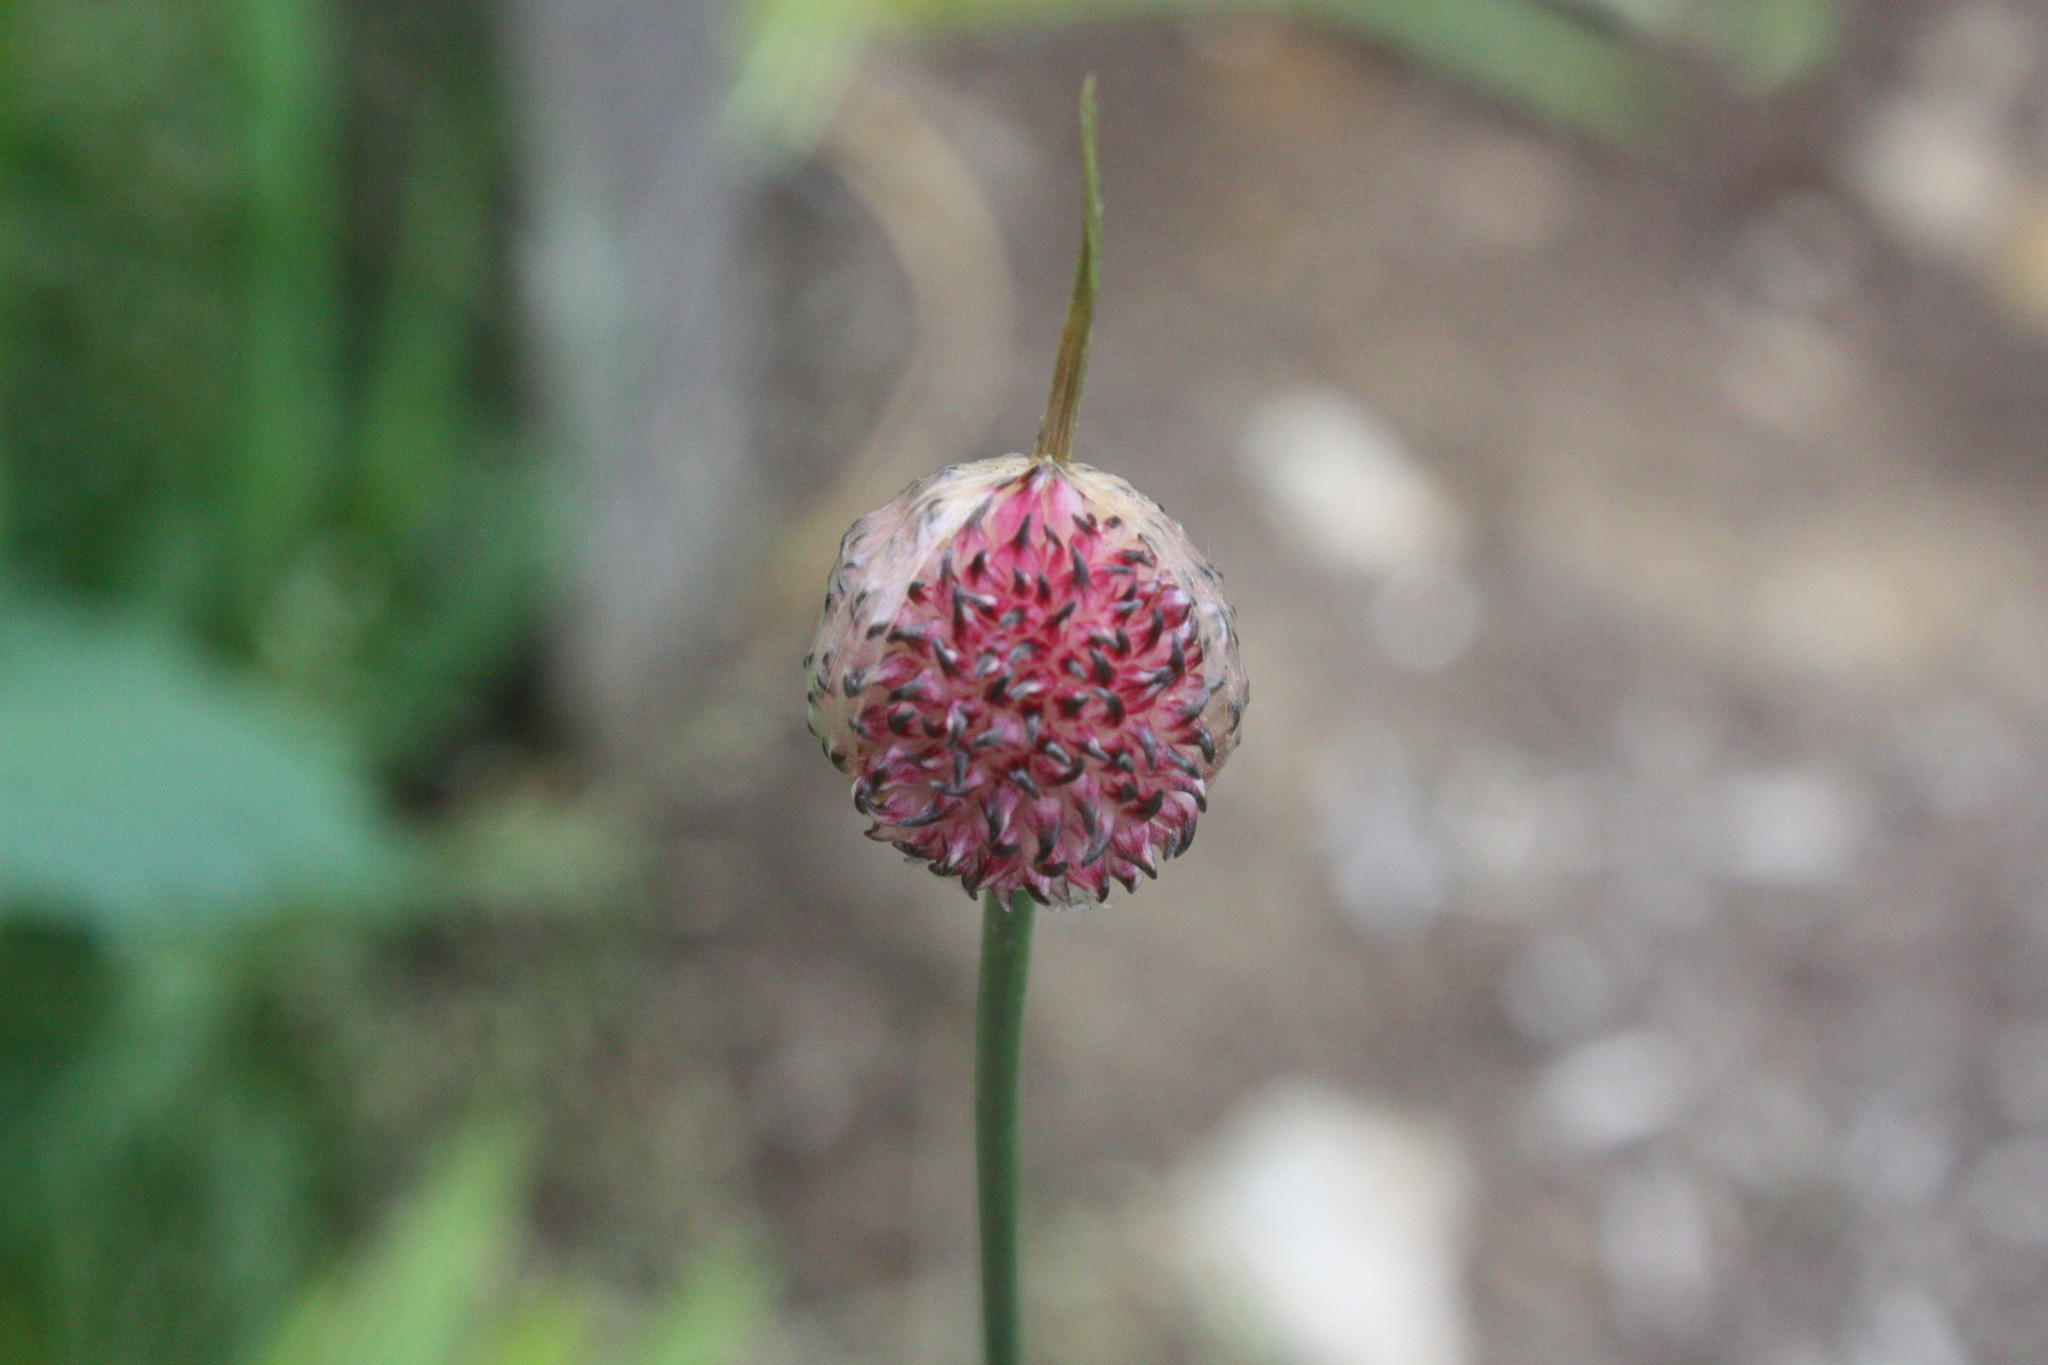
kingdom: Plantae
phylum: Tracheophyta
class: Liliopsida
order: Asparagales
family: Amaryllidaceae
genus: Allium
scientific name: Allium vineale
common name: Crow garlic
